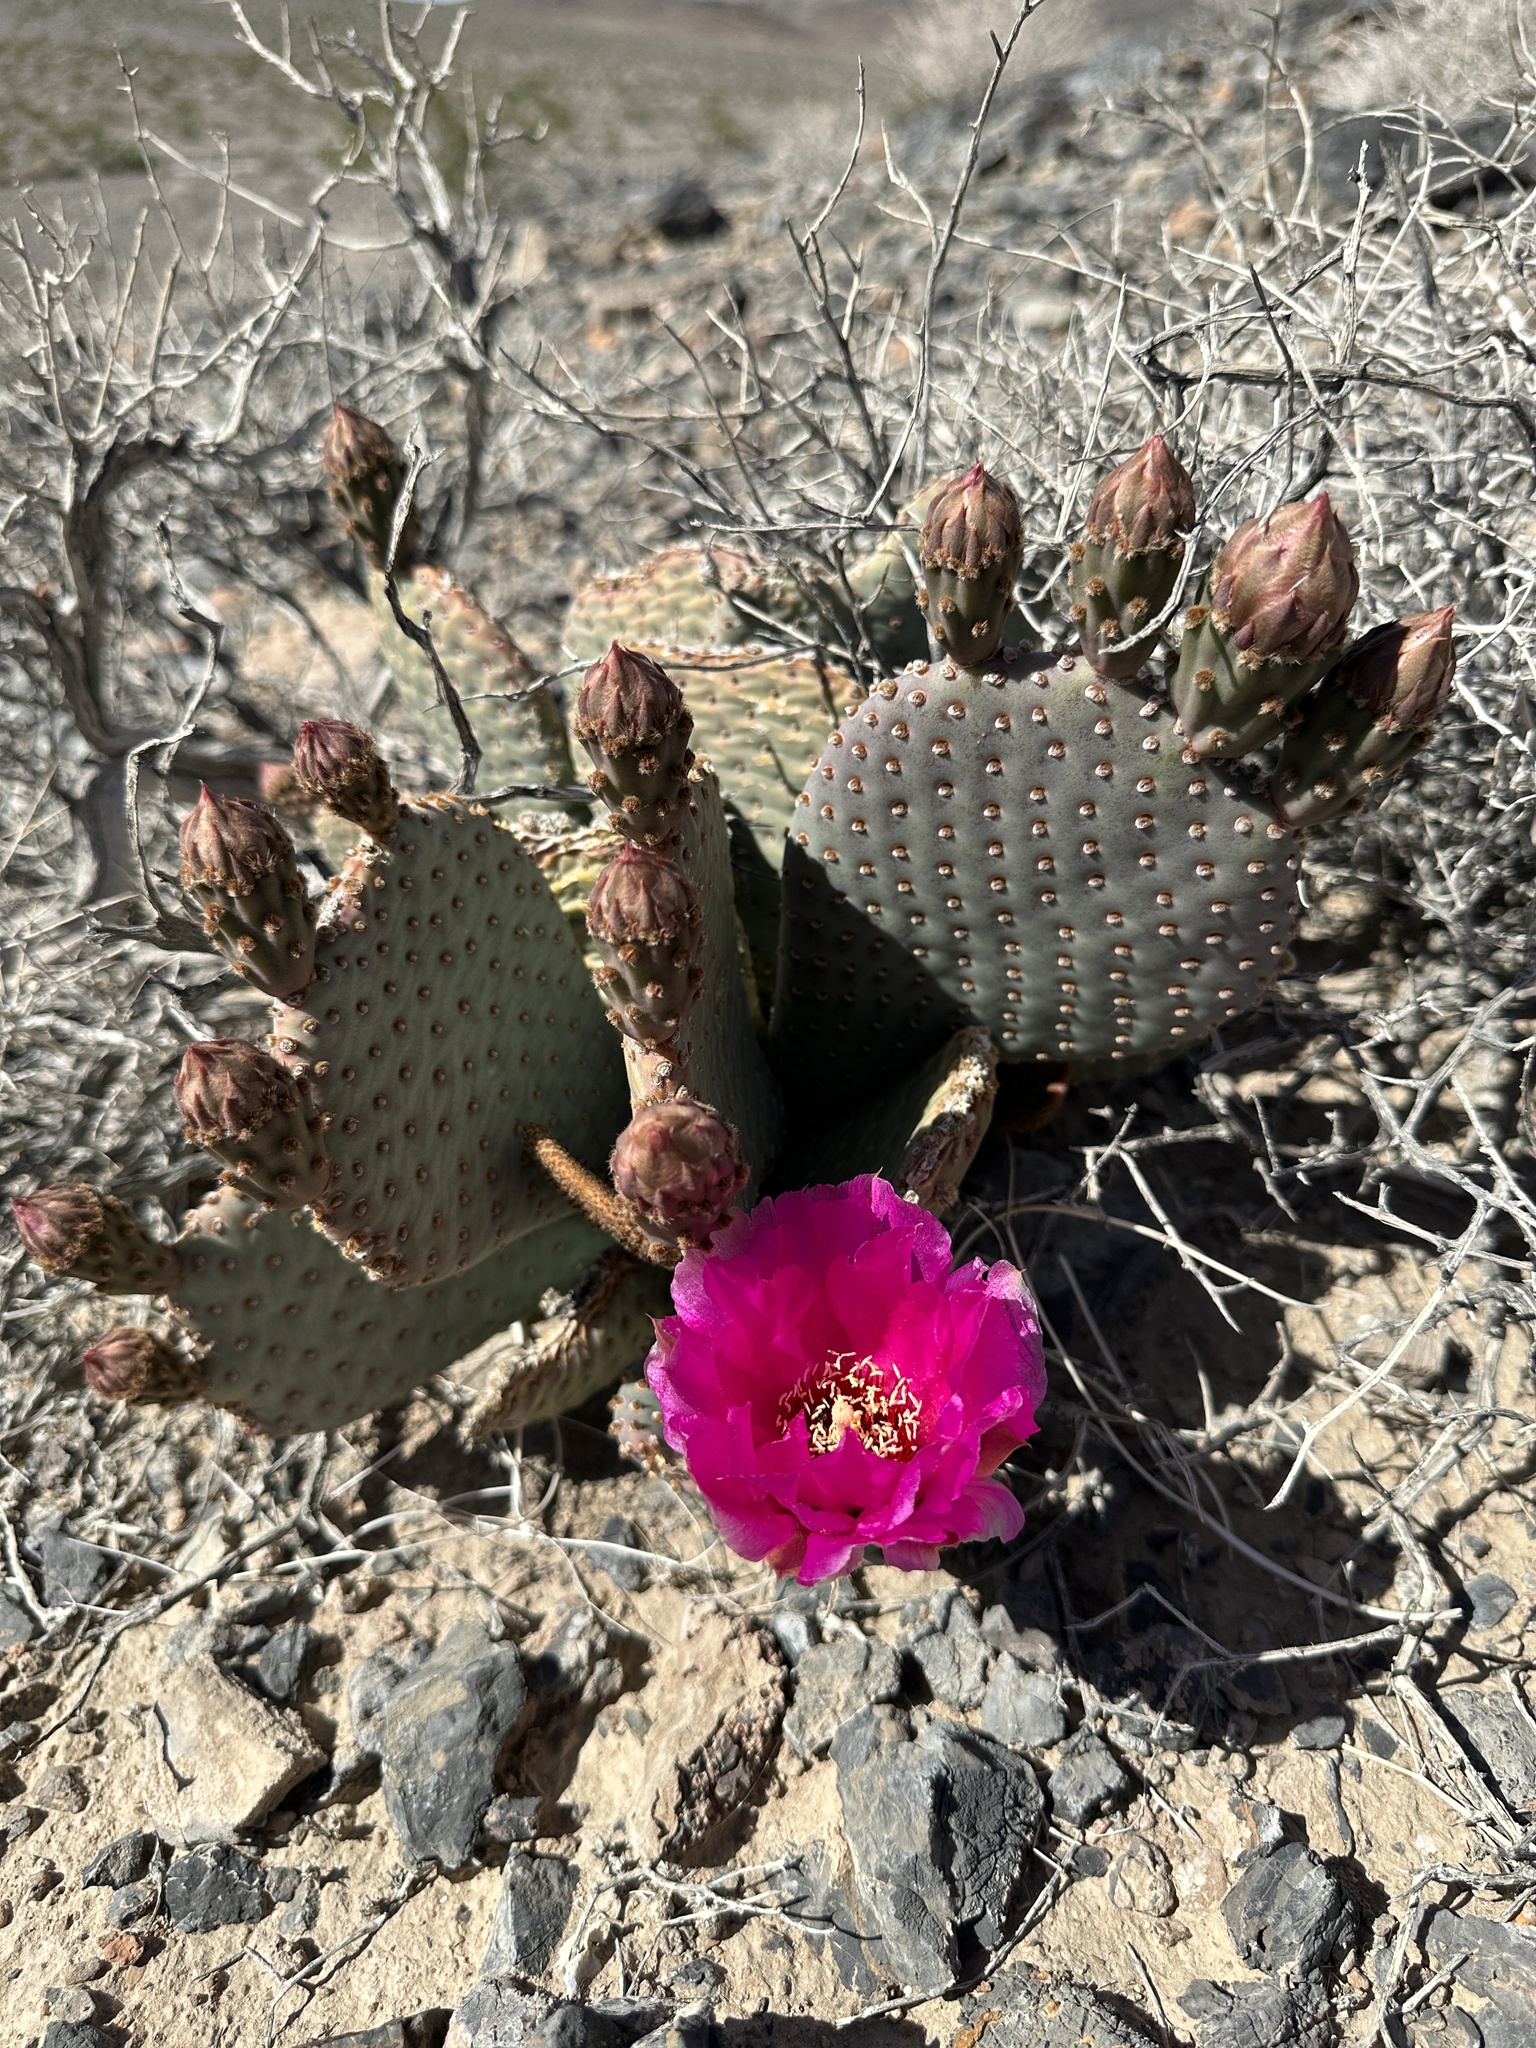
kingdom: Plantae
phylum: Tracheophyta
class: Magnoliopsida
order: Caryophyllales
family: Cactaceae
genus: Opuntia
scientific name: Opuntia basilaris
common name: Beavertail prickly-pear
